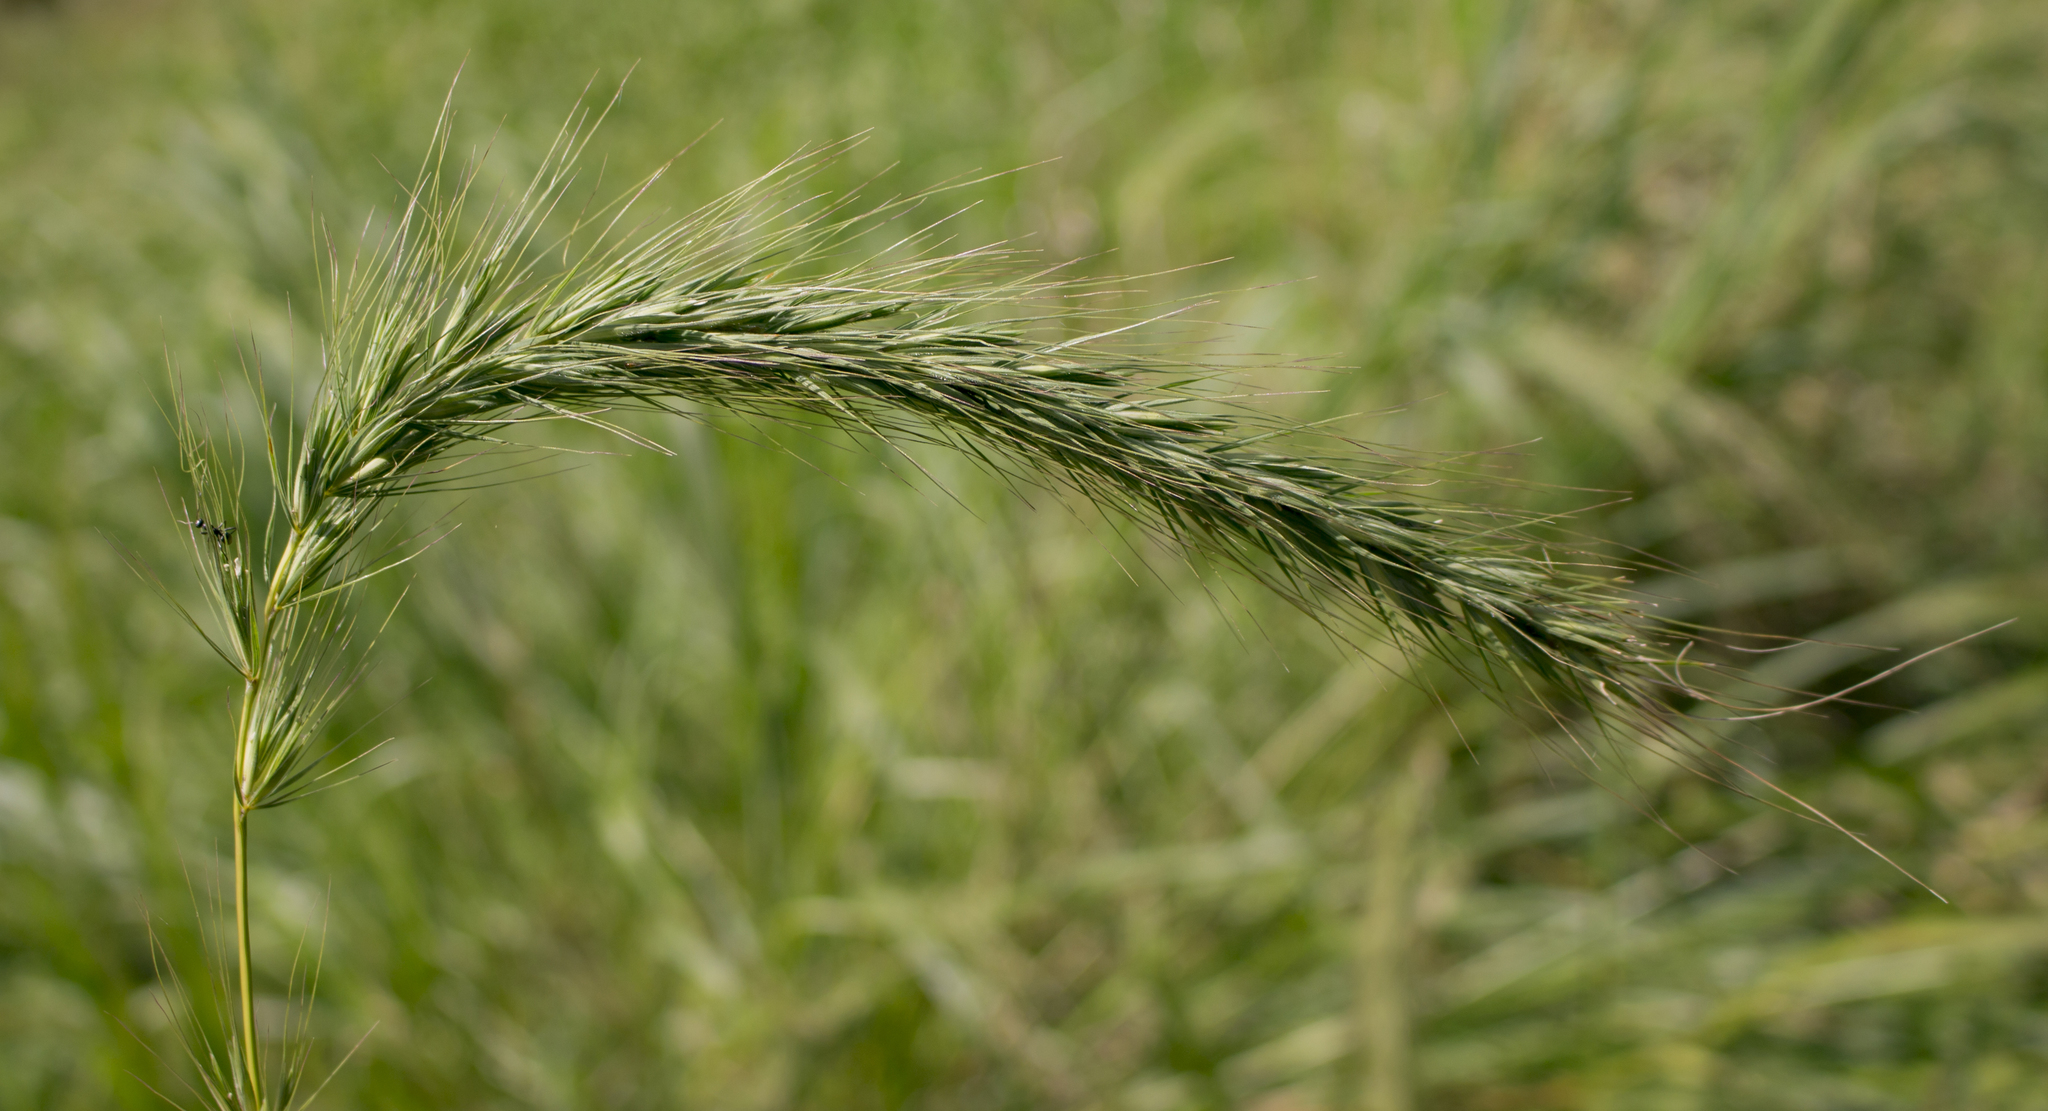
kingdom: Plantae
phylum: Tracheophyta
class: Liliopsida
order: Poales
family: Poaceae
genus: Elymus
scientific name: Elymus canadensis
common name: Canada wild rye
